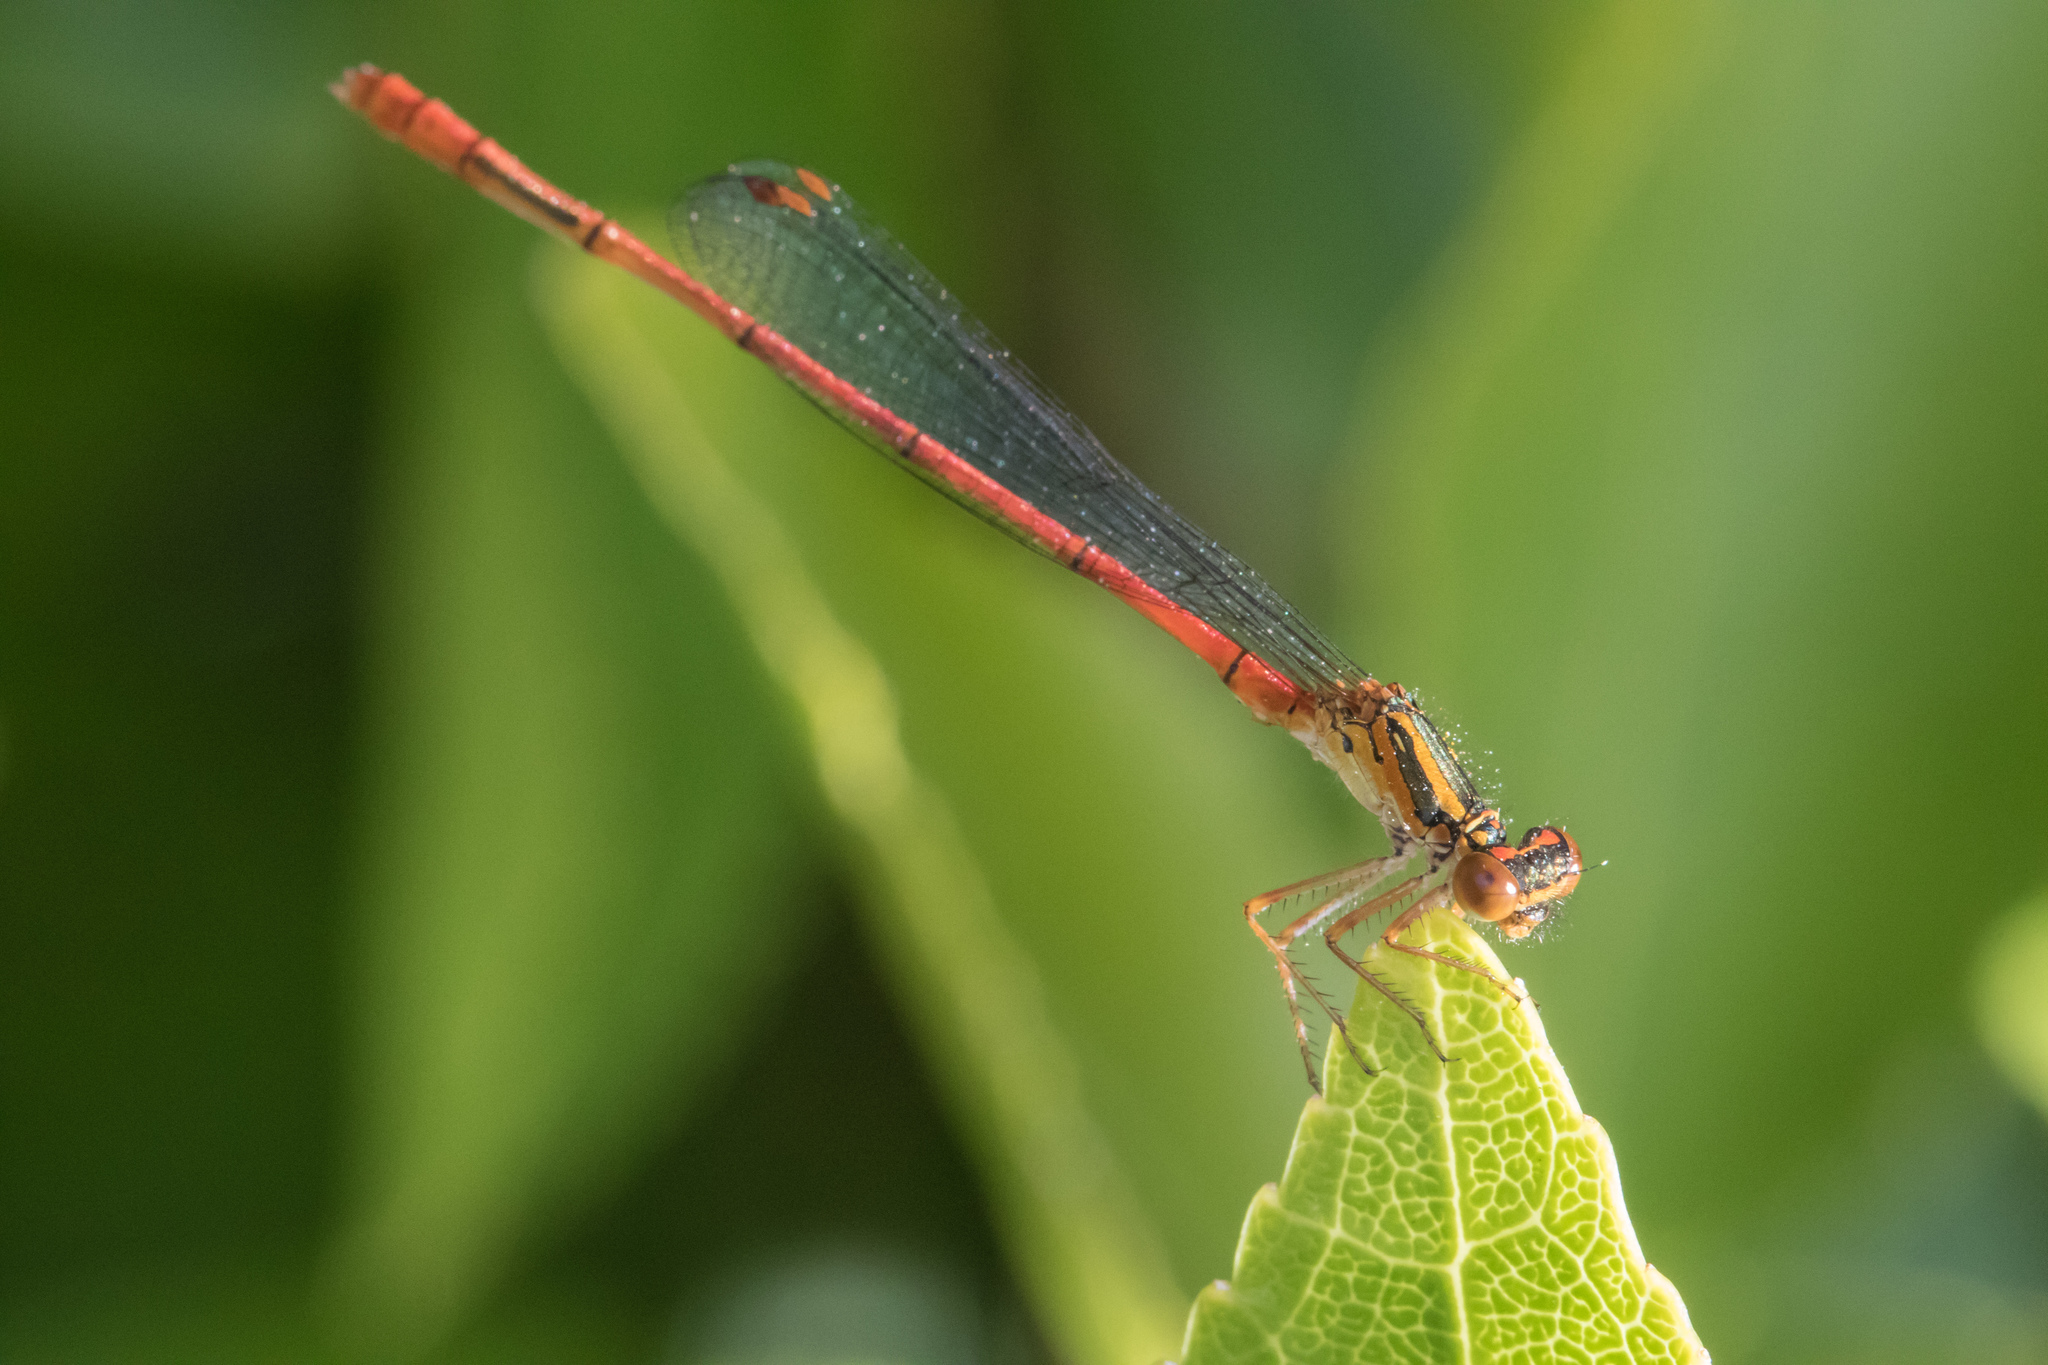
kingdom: Animalia
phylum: Arthropoda
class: Insecta
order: Odonata
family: Coenagrionidae
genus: Xanthocnemis
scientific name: Xanthocnemis zealandica
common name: Common redcoat damselfly
